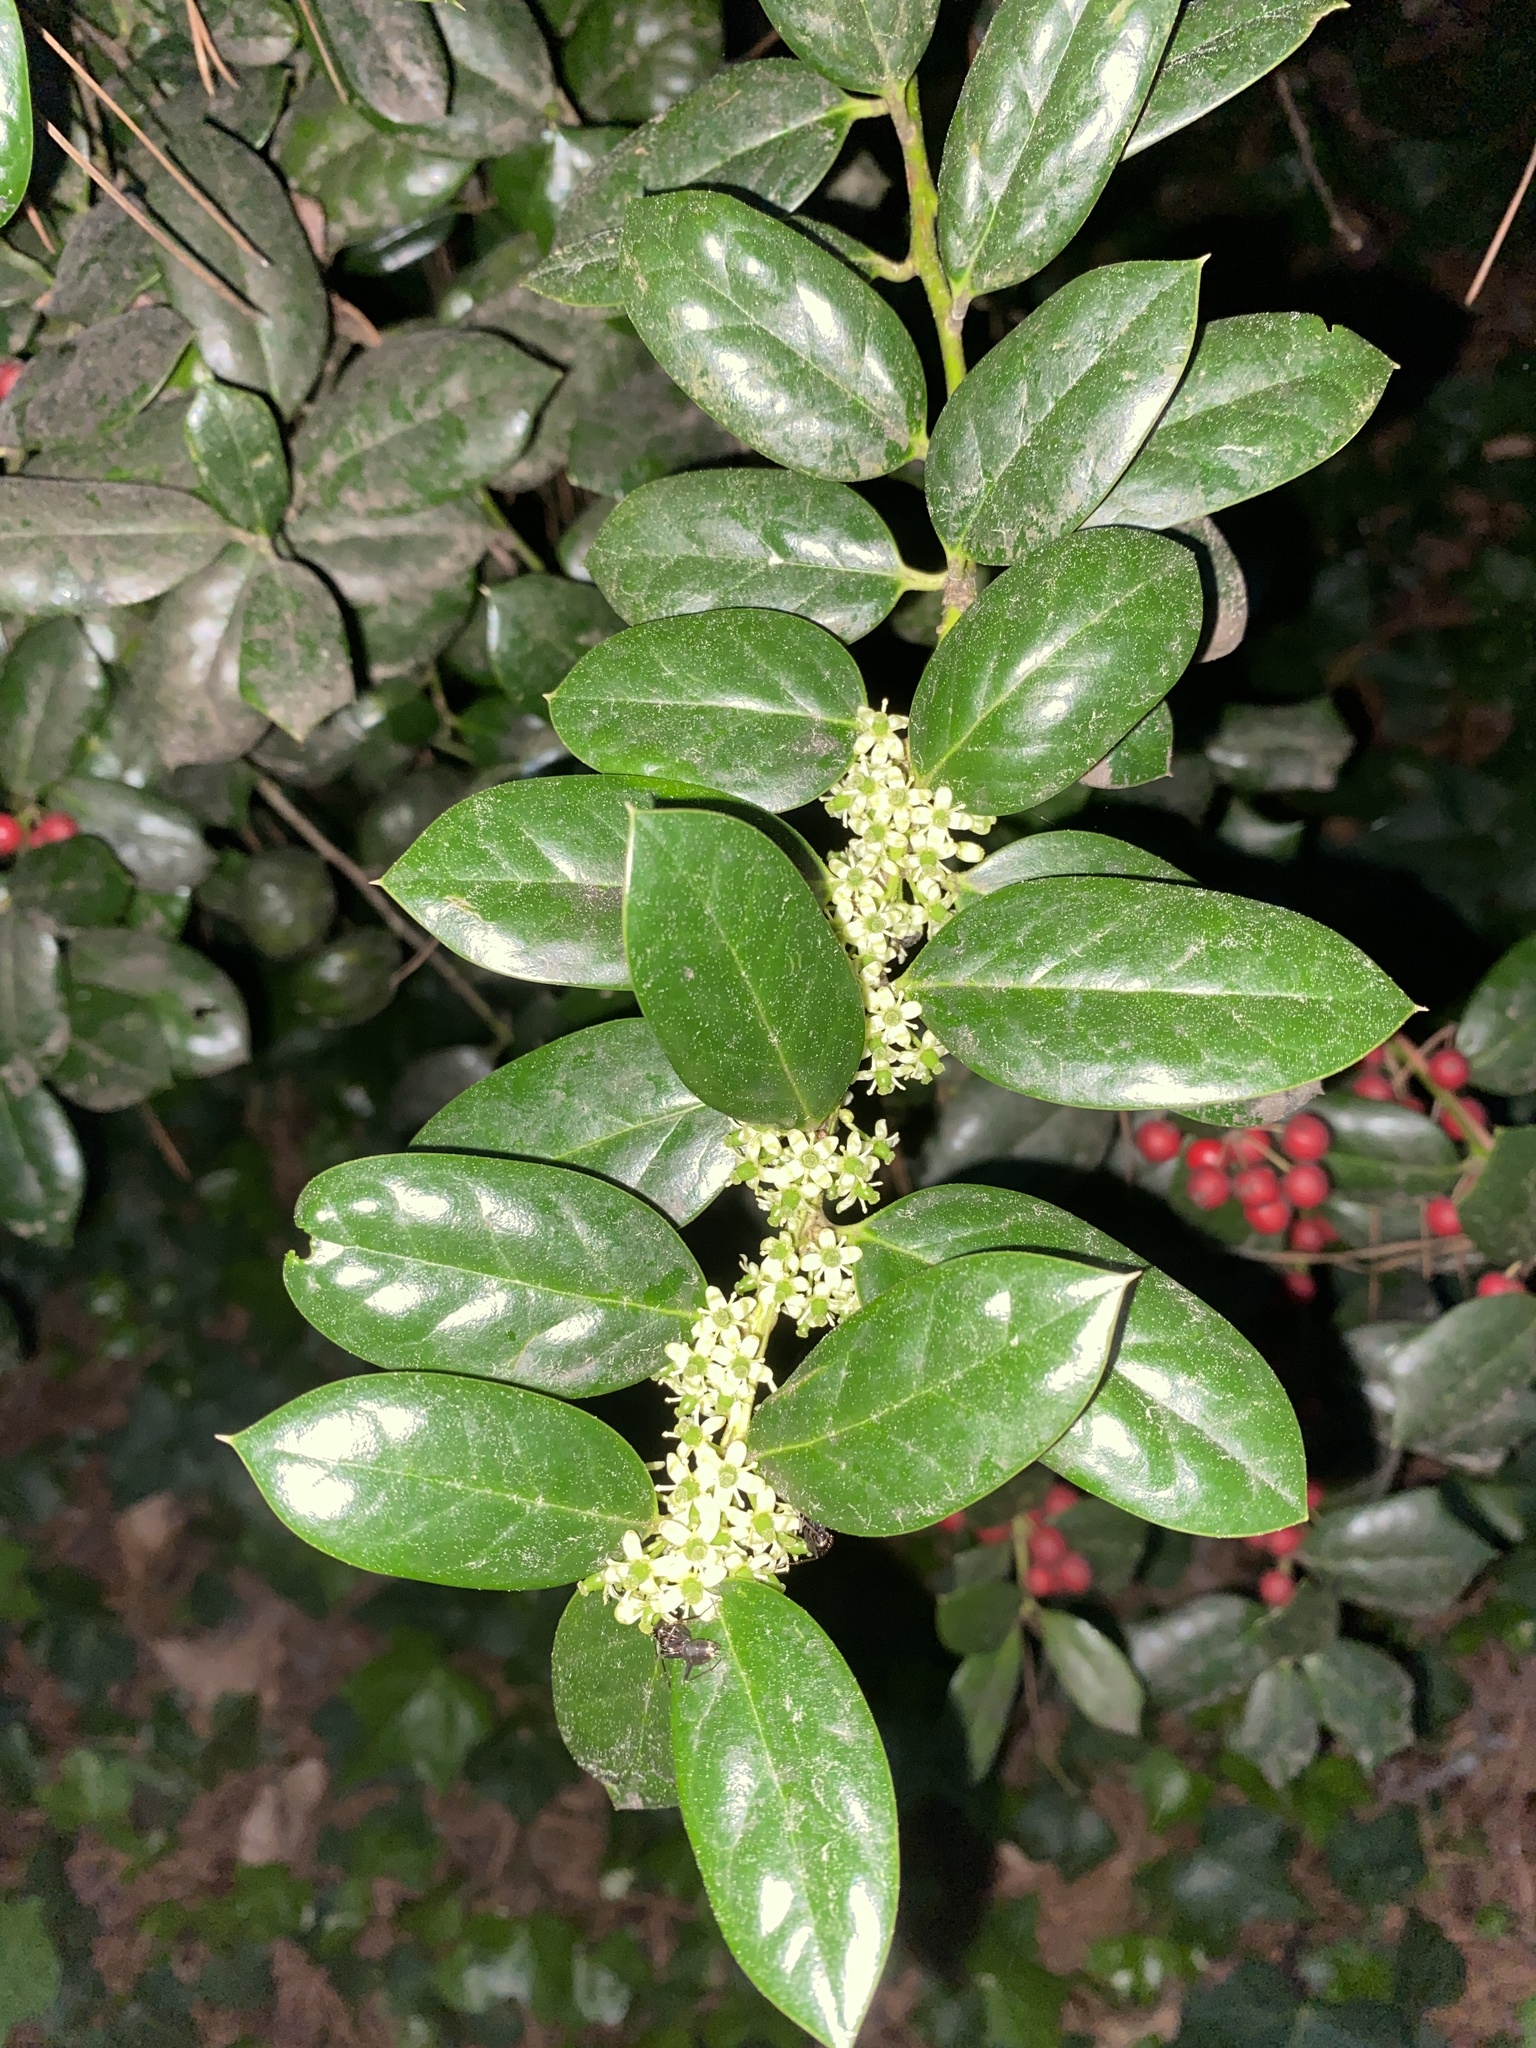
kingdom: Plantae
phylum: Tracheophyta
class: Magnoliopsida
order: Aquifoliales
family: Aquifoliaceae
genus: Ilex
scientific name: Ilex cornuta
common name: Chinese holly
